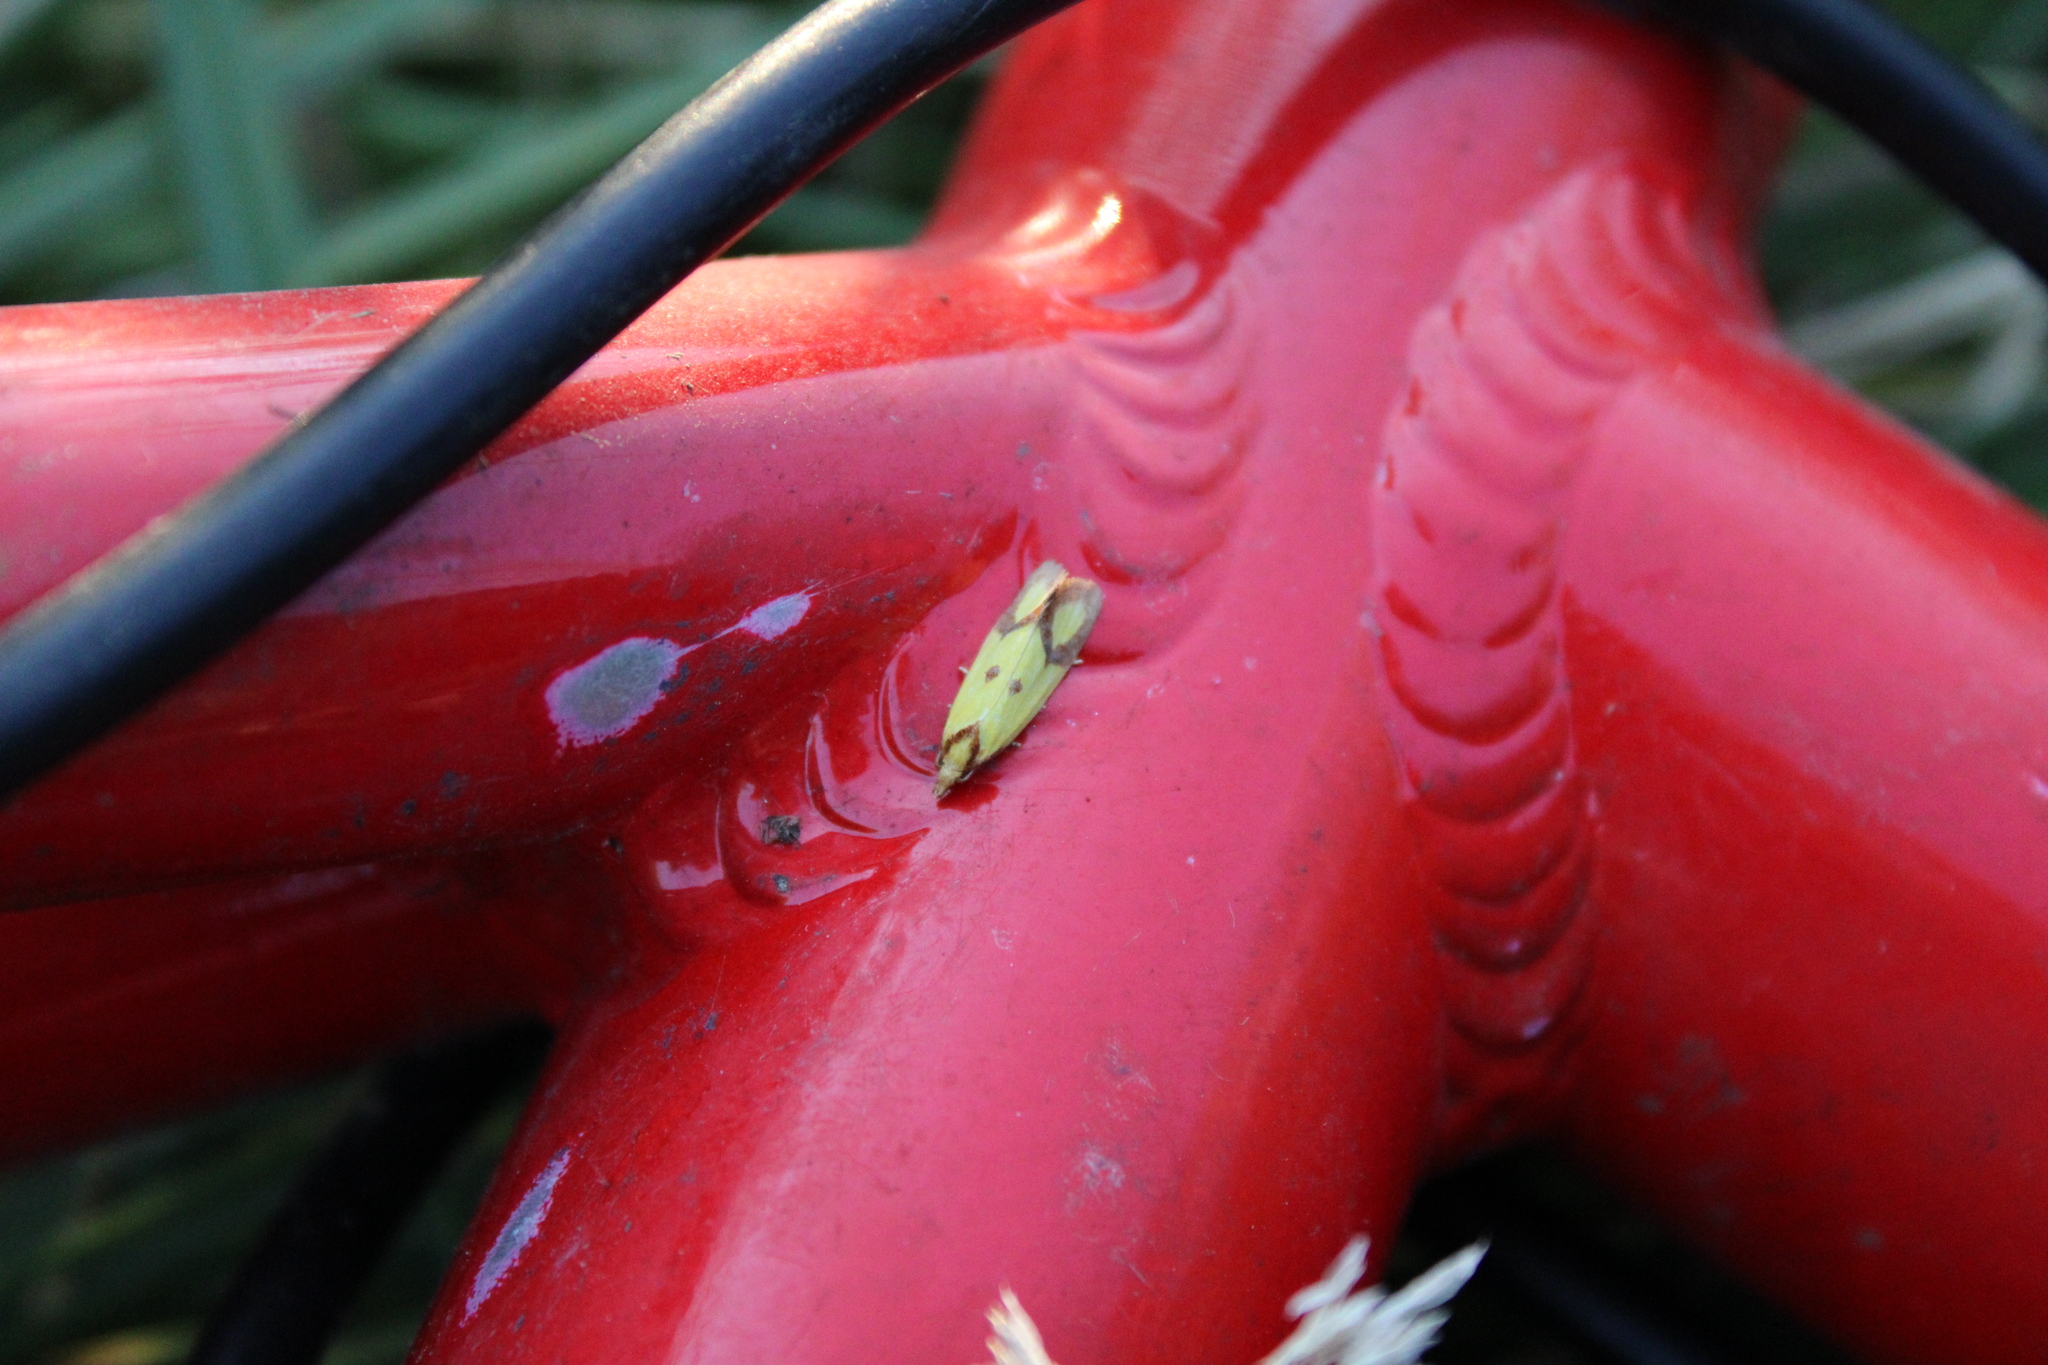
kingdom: Animalia
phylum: Arthropoda
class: Insecta
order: Lepidoptera
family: Tortricidae
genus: Agapeta
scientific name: Agapeta zoegana
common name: Sulfur knapweed root moth
